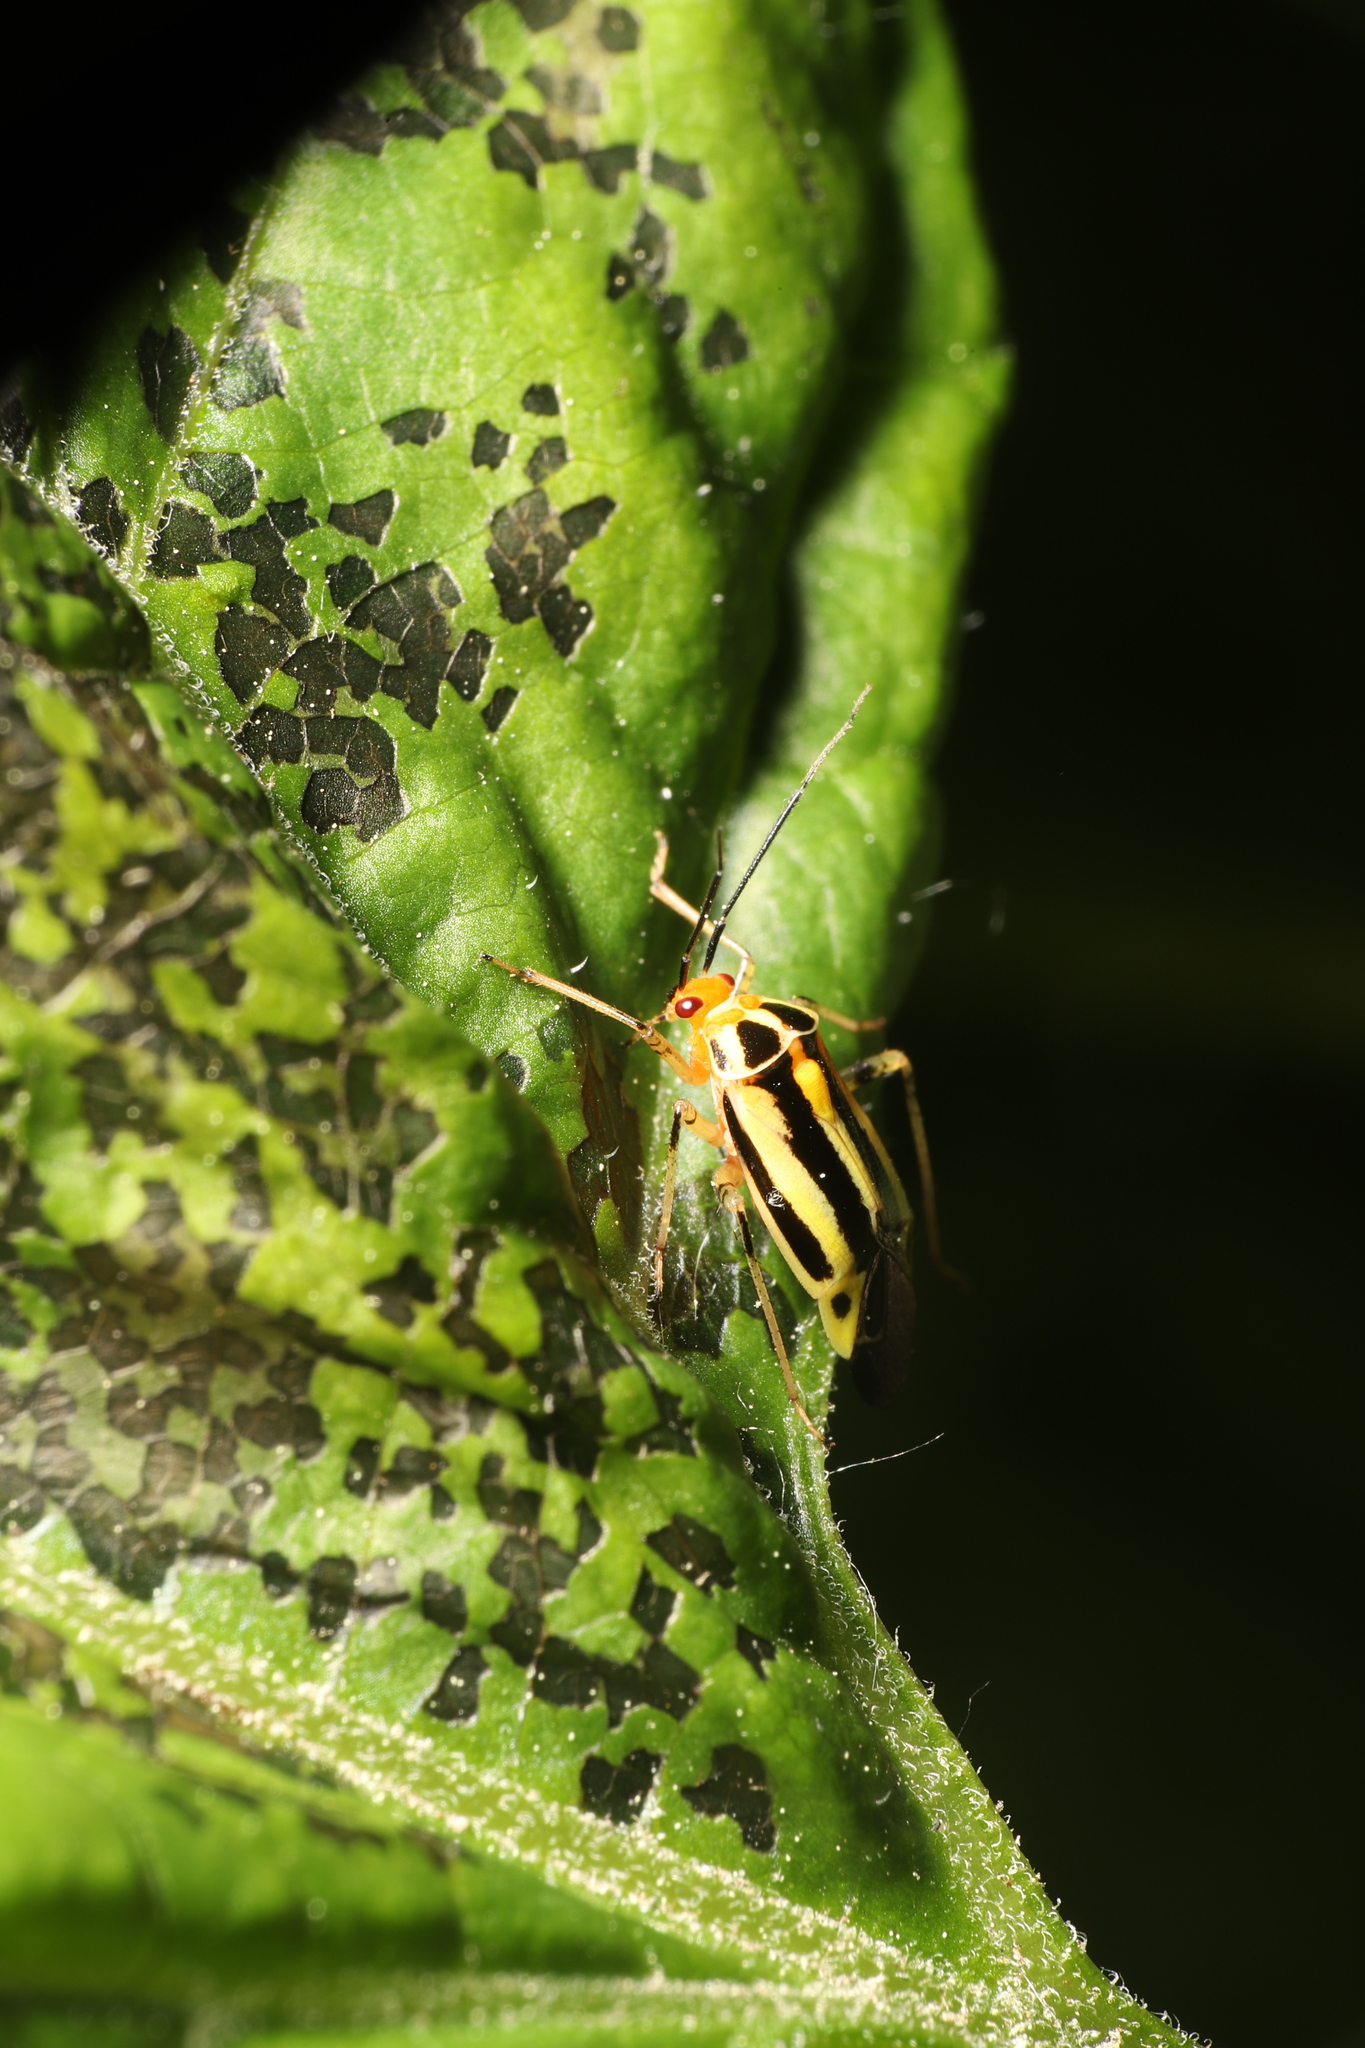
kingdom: Animalia
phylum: Arthropoda
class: Insecta
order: Hemiptera
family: Miridae
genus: Poecilocapsus
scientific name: Poecilocapsus lineatus
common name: Four-lined plant bug
